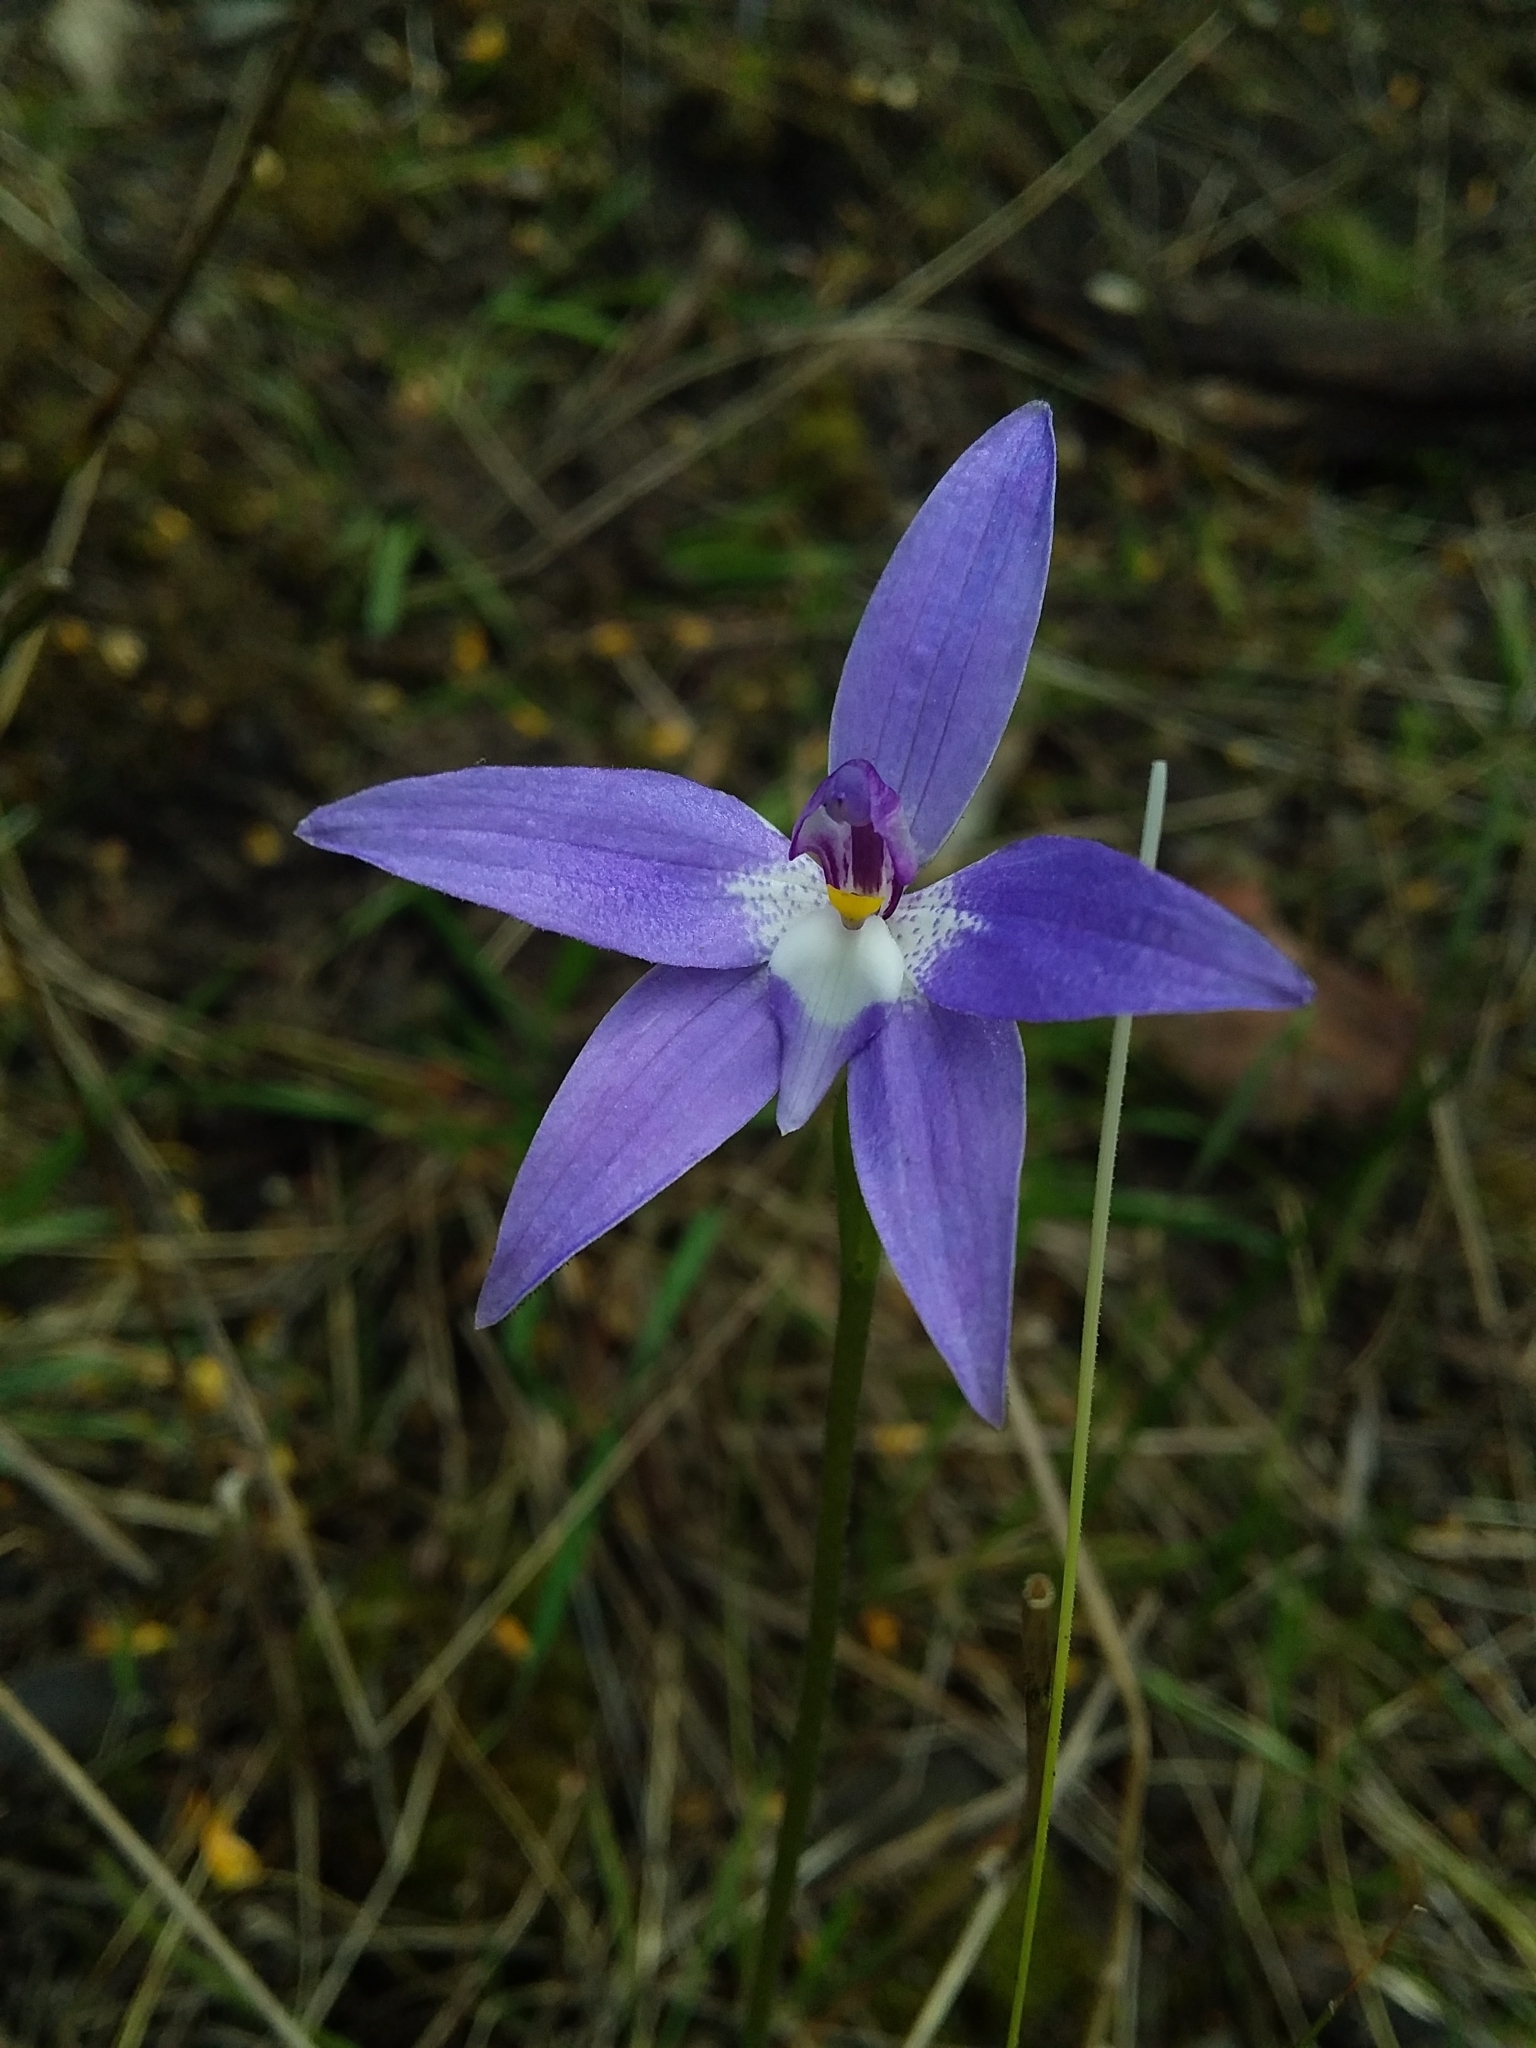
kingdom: Plantae
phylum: Tracheophyta
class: Liliopsida
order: Asparagales
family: Orchidaceae
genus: Caladenia
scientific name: Caladenia major
